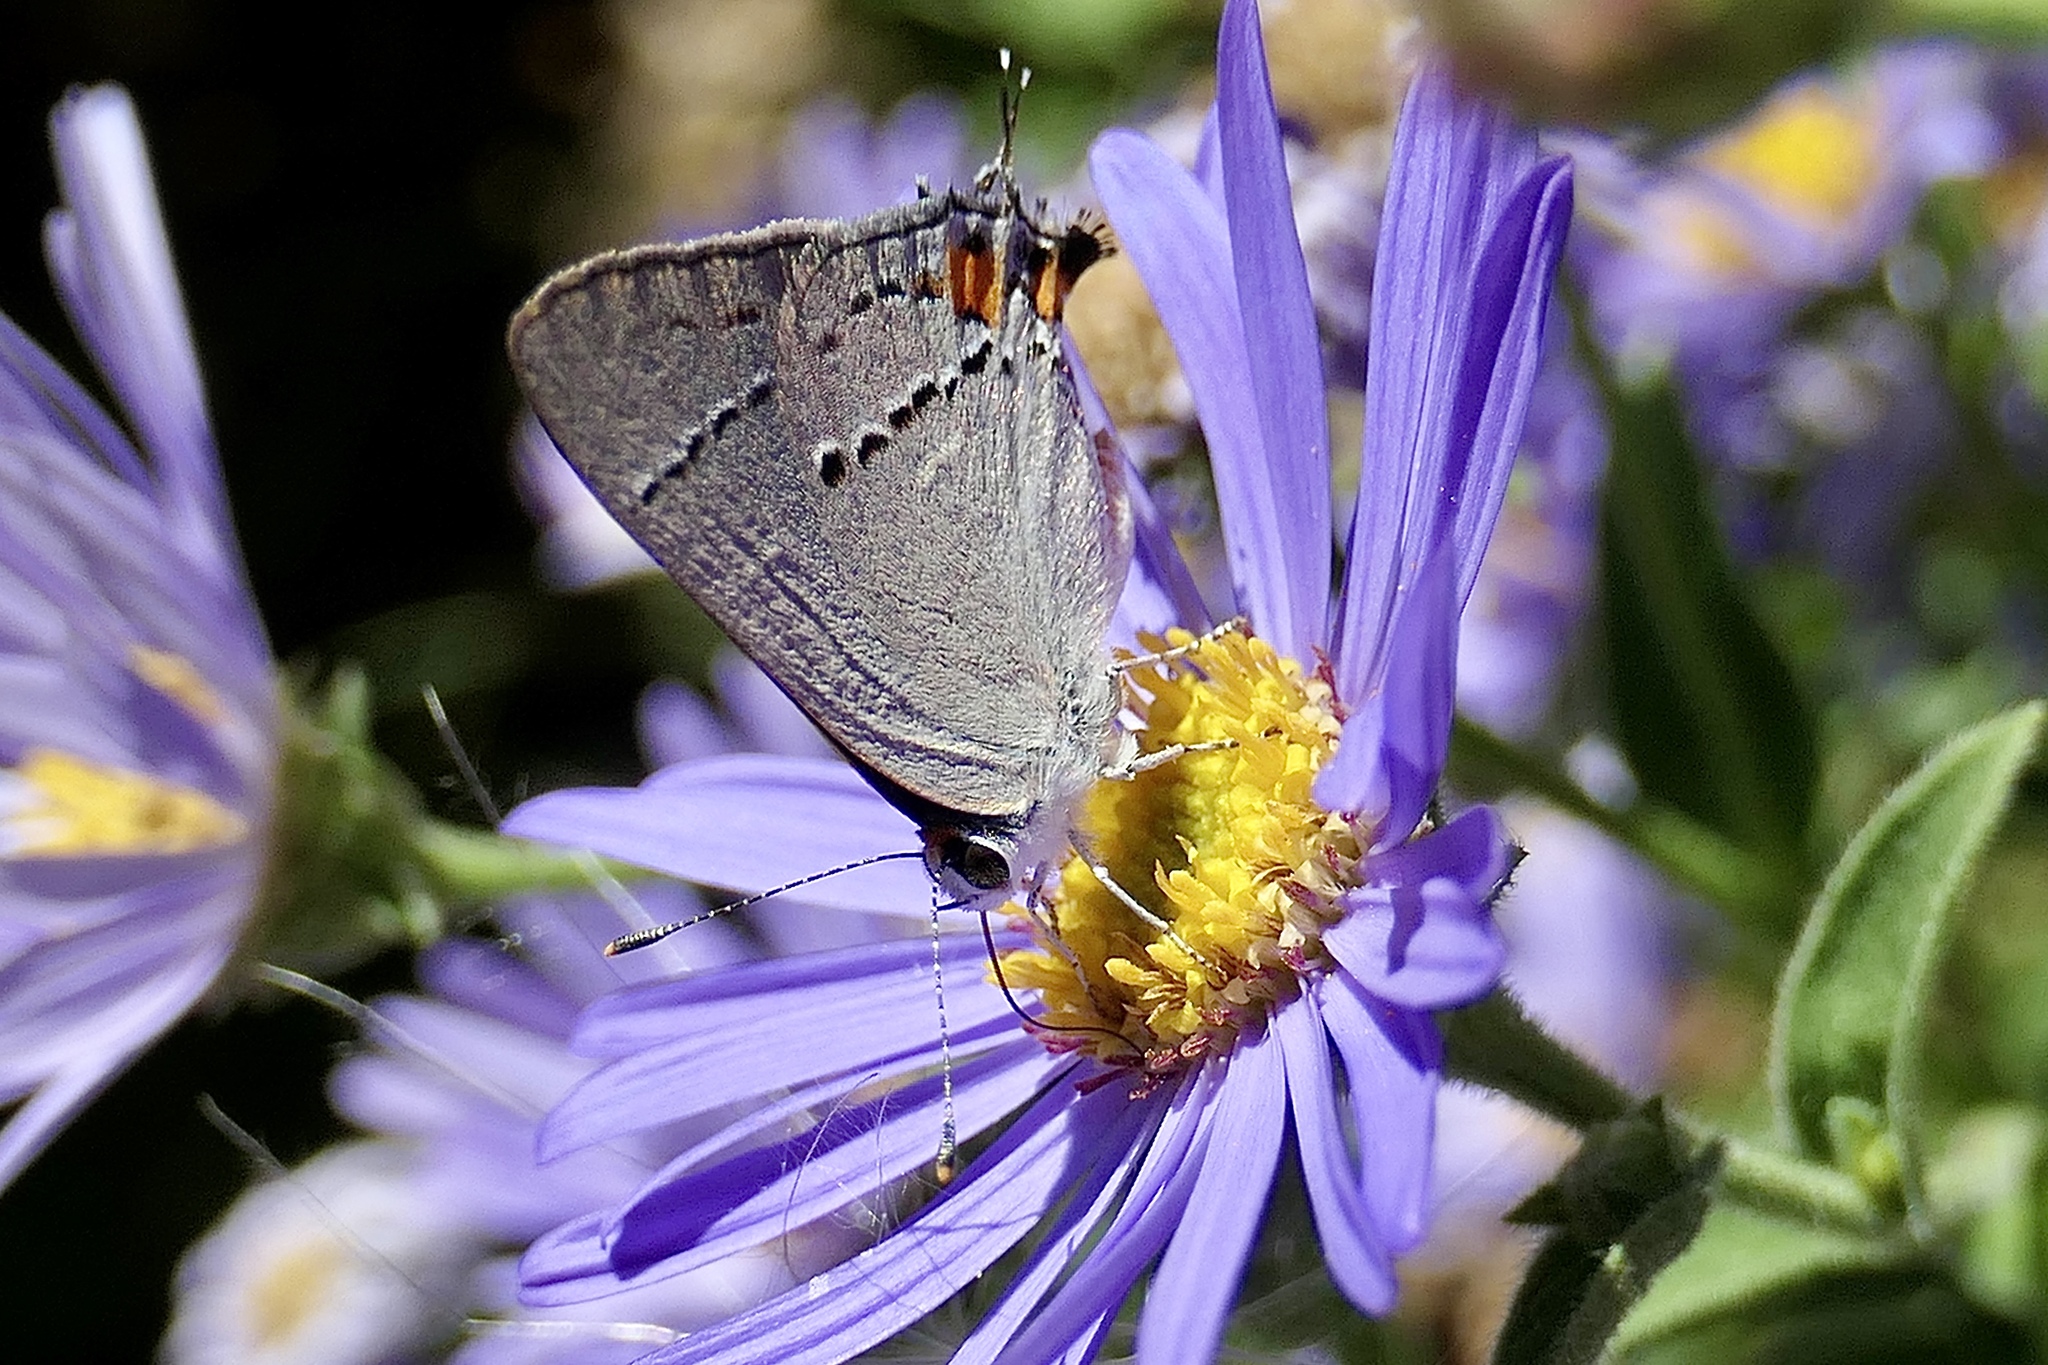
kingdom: Animalia
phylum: Arthropoda
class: Insecta
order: Lepidoptera
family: Lycaenidae
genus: Strymon
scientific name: Strymon melinus
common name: Gray hairstreak
